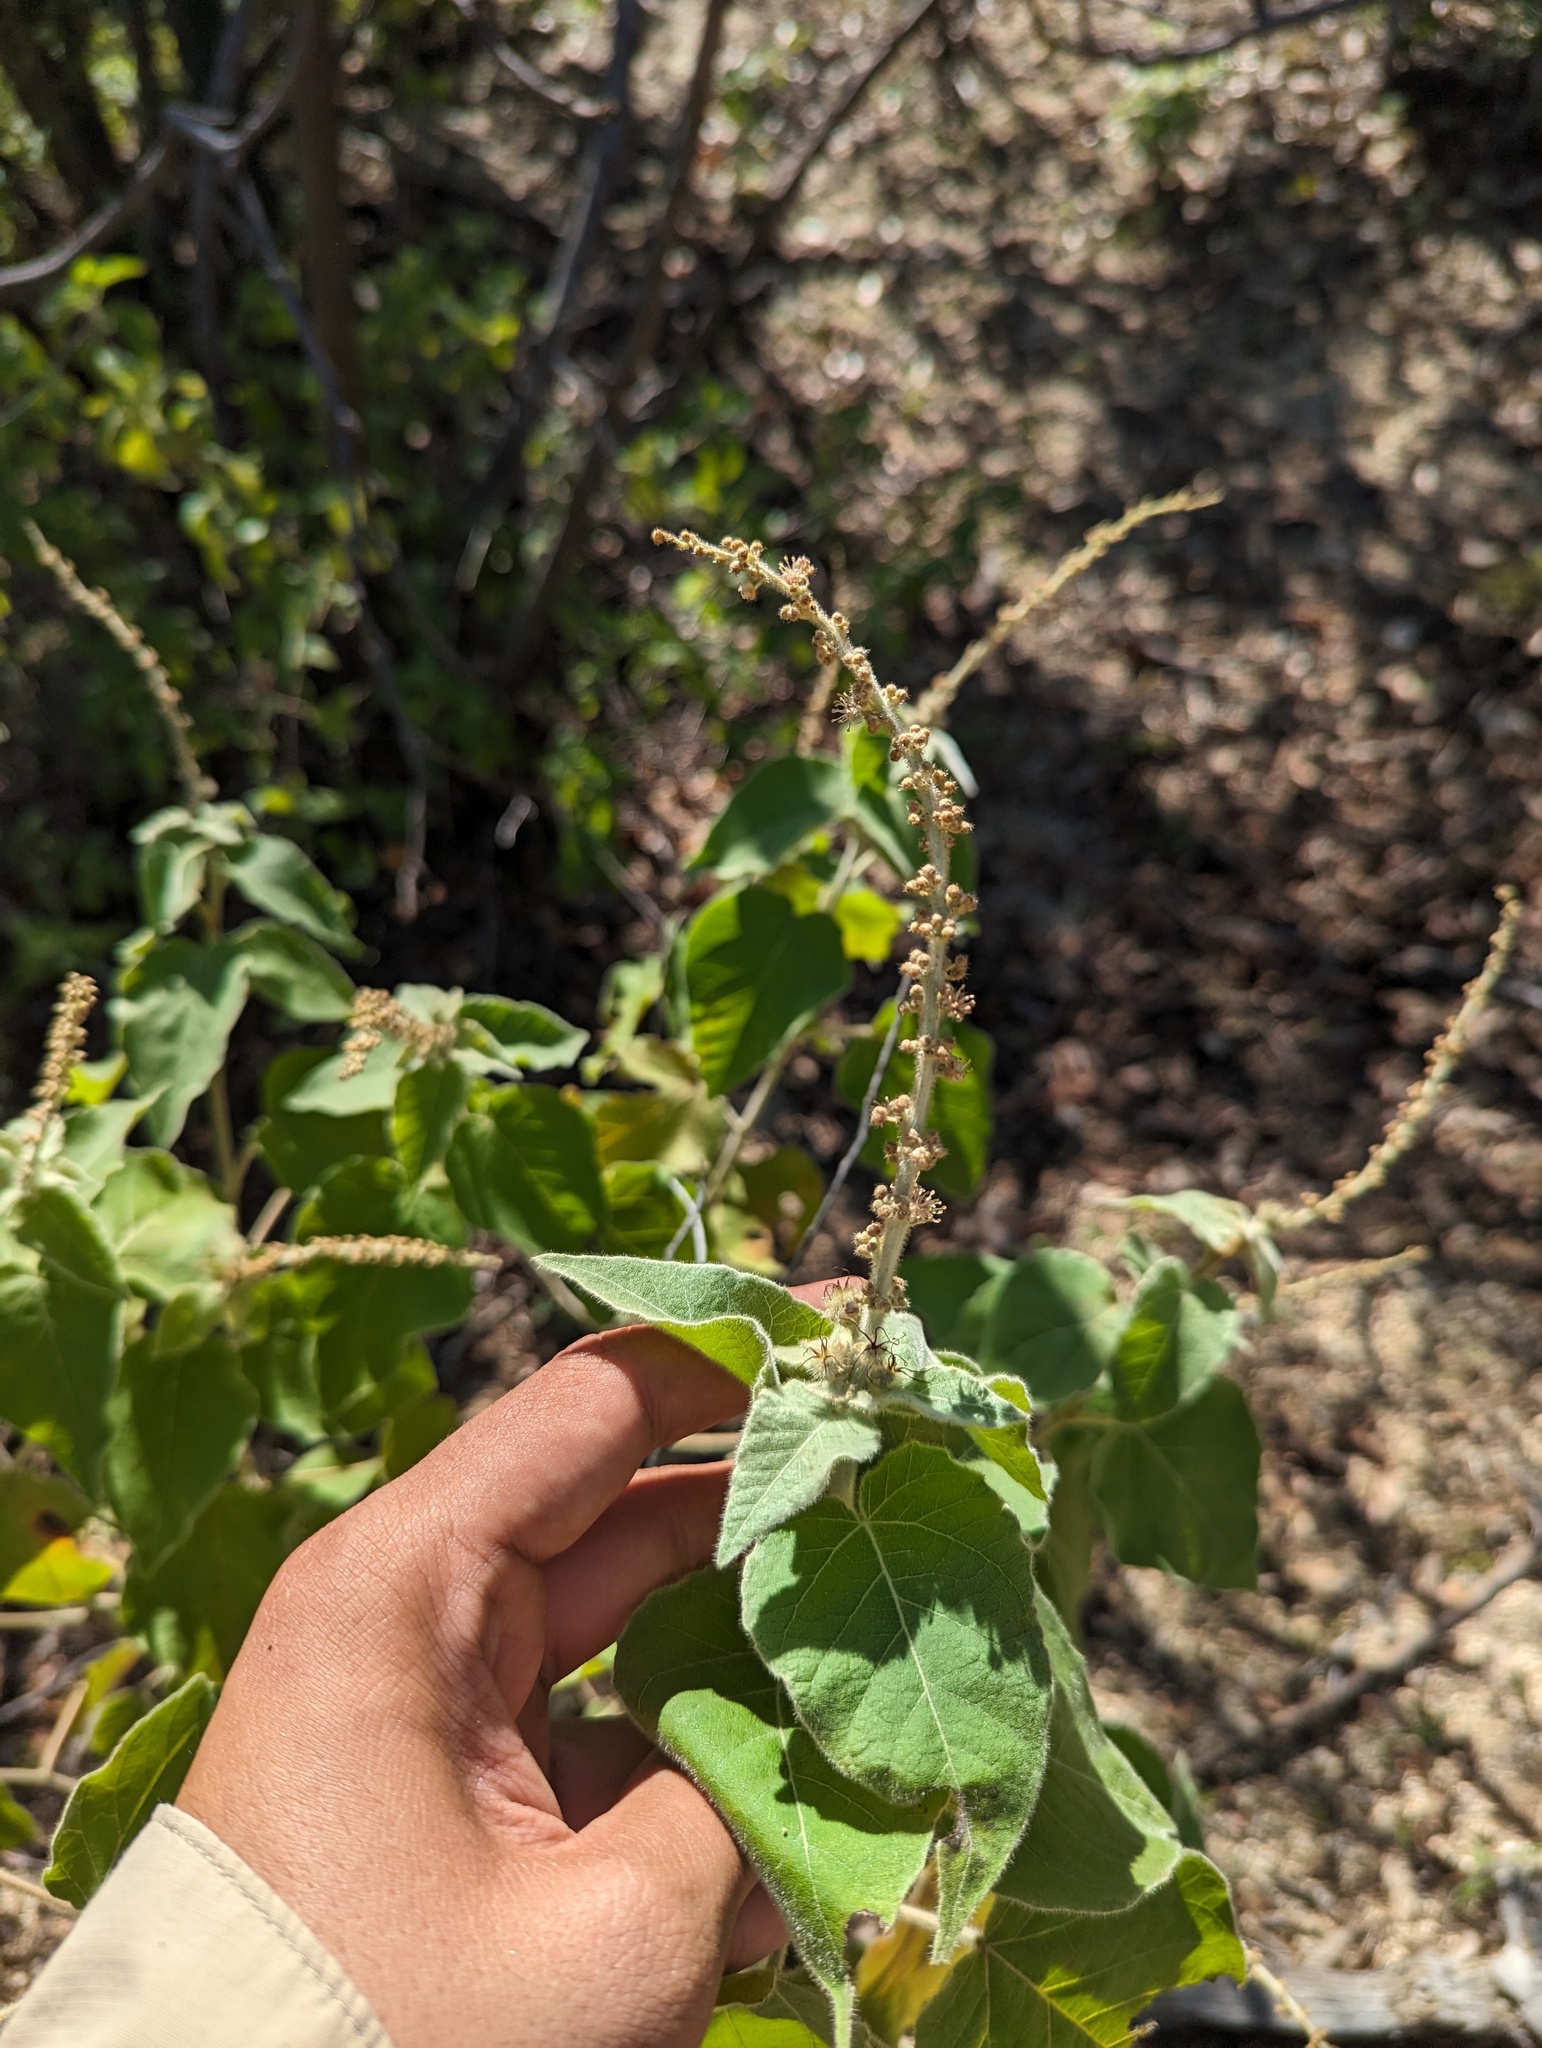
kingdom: Plantae
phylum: Tracheophyta
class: Magnoliopsida
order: Malpighiales
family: Euphorbiaceae
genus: Croton
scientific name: Croton magdalenae
